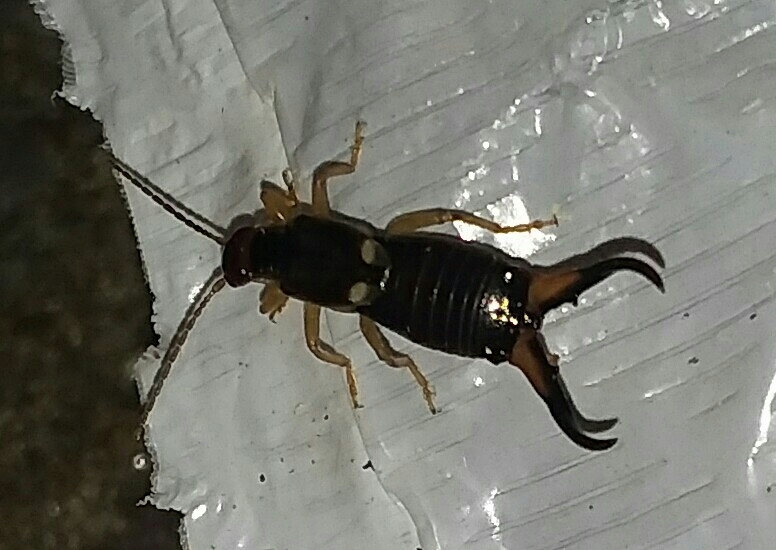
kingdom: Animalia
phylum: Arthropoda
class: Insecta
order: Dermaptera
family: Forficulidae
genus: Forficula
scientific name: Forficula
